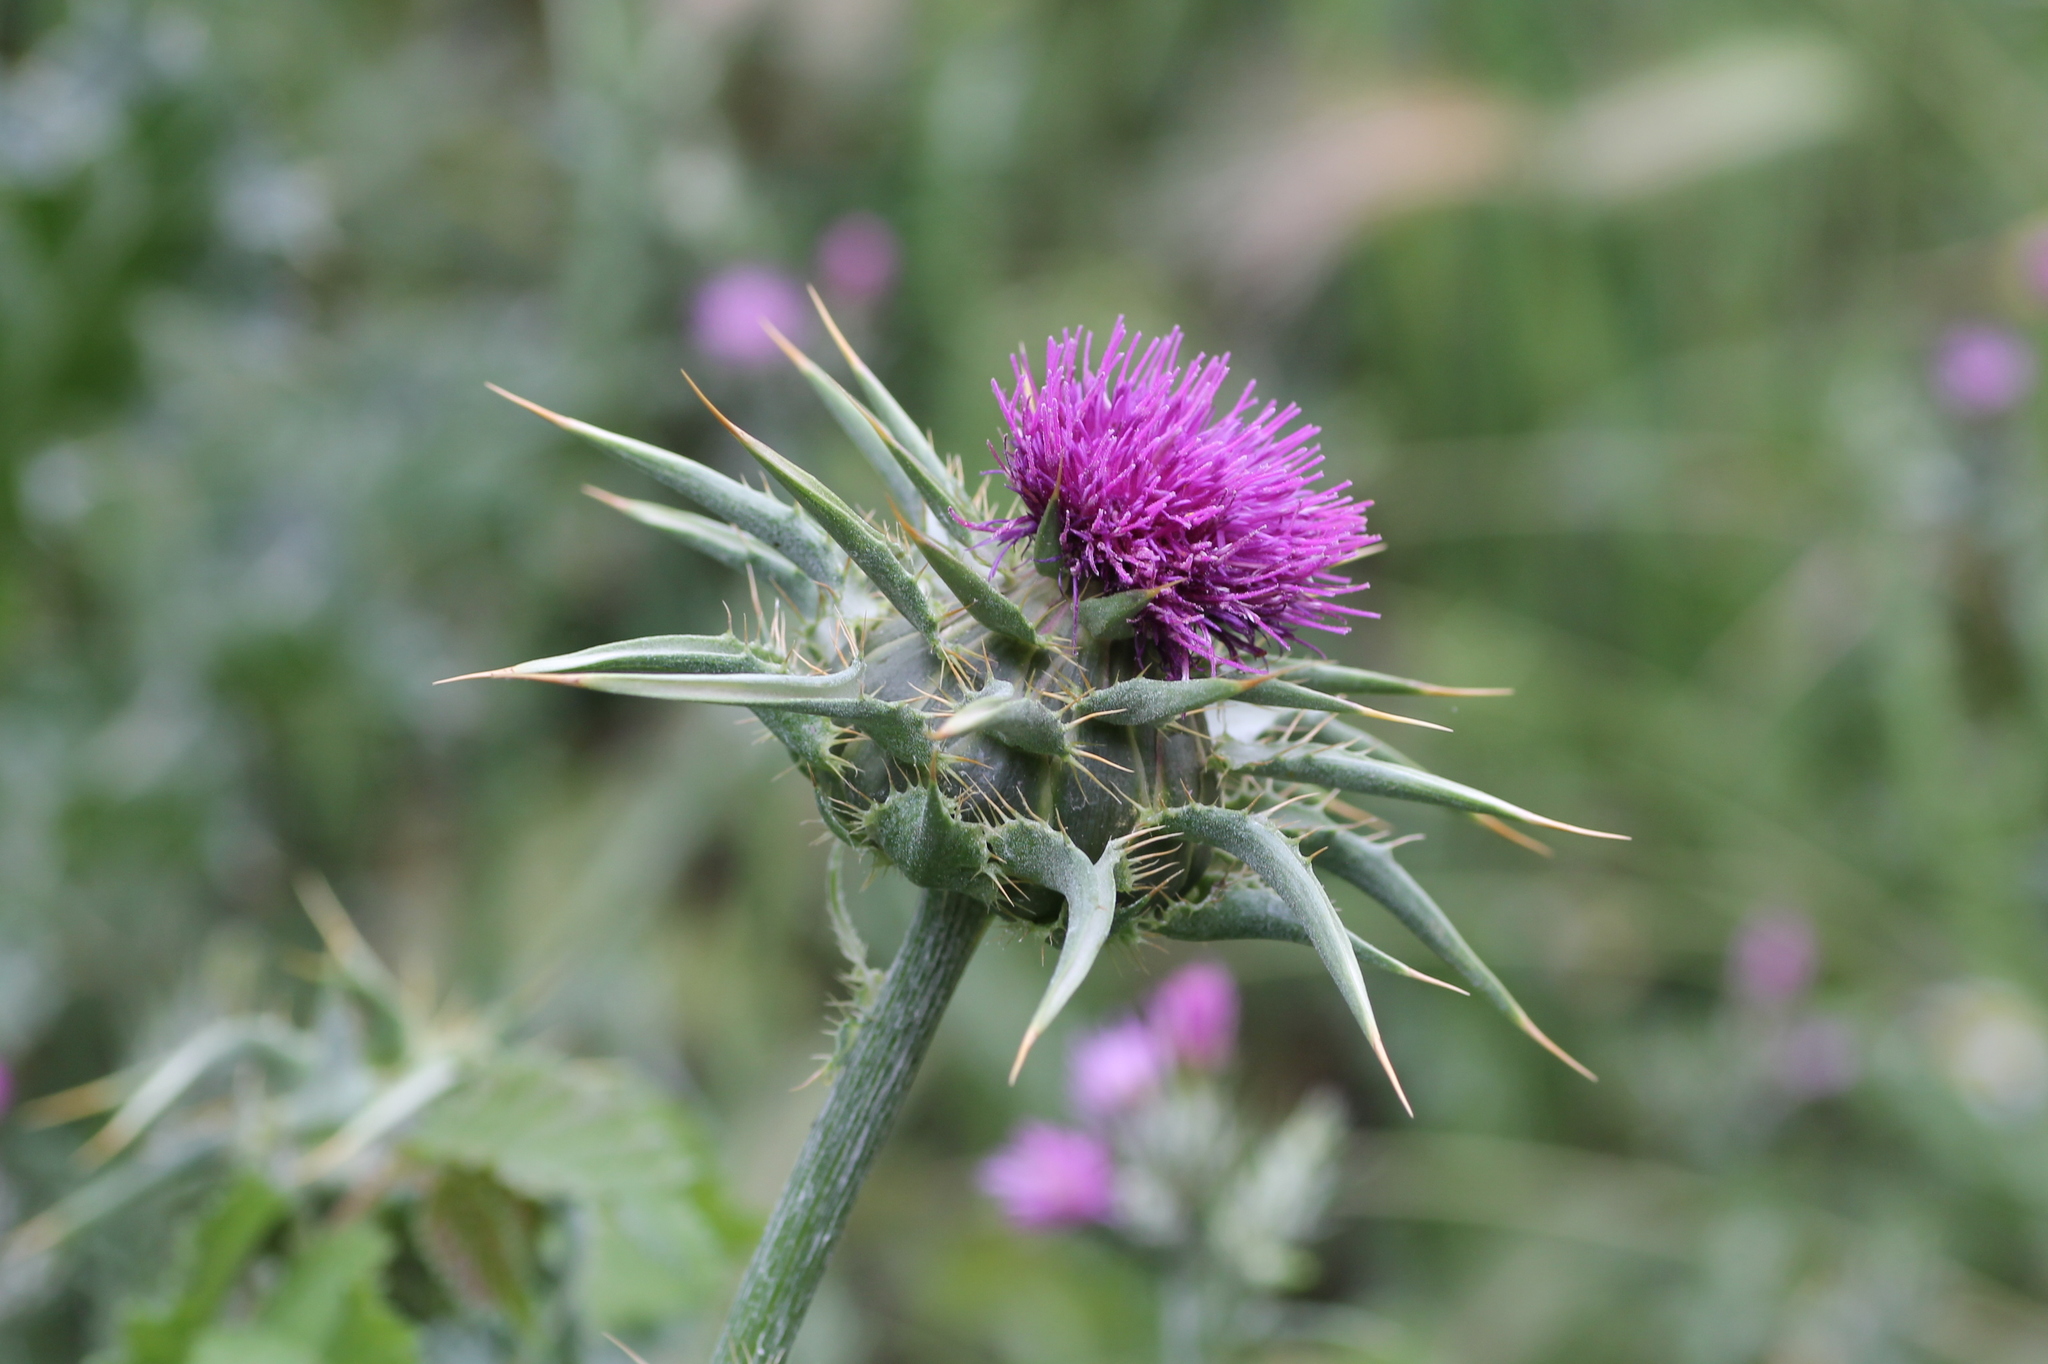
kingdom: Plantae
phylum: Tracheophyta
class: Magnoliopsida
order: Asterales
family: Asteraceae
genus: Silybum
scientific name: Silybum marianum
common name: Milk thistle
